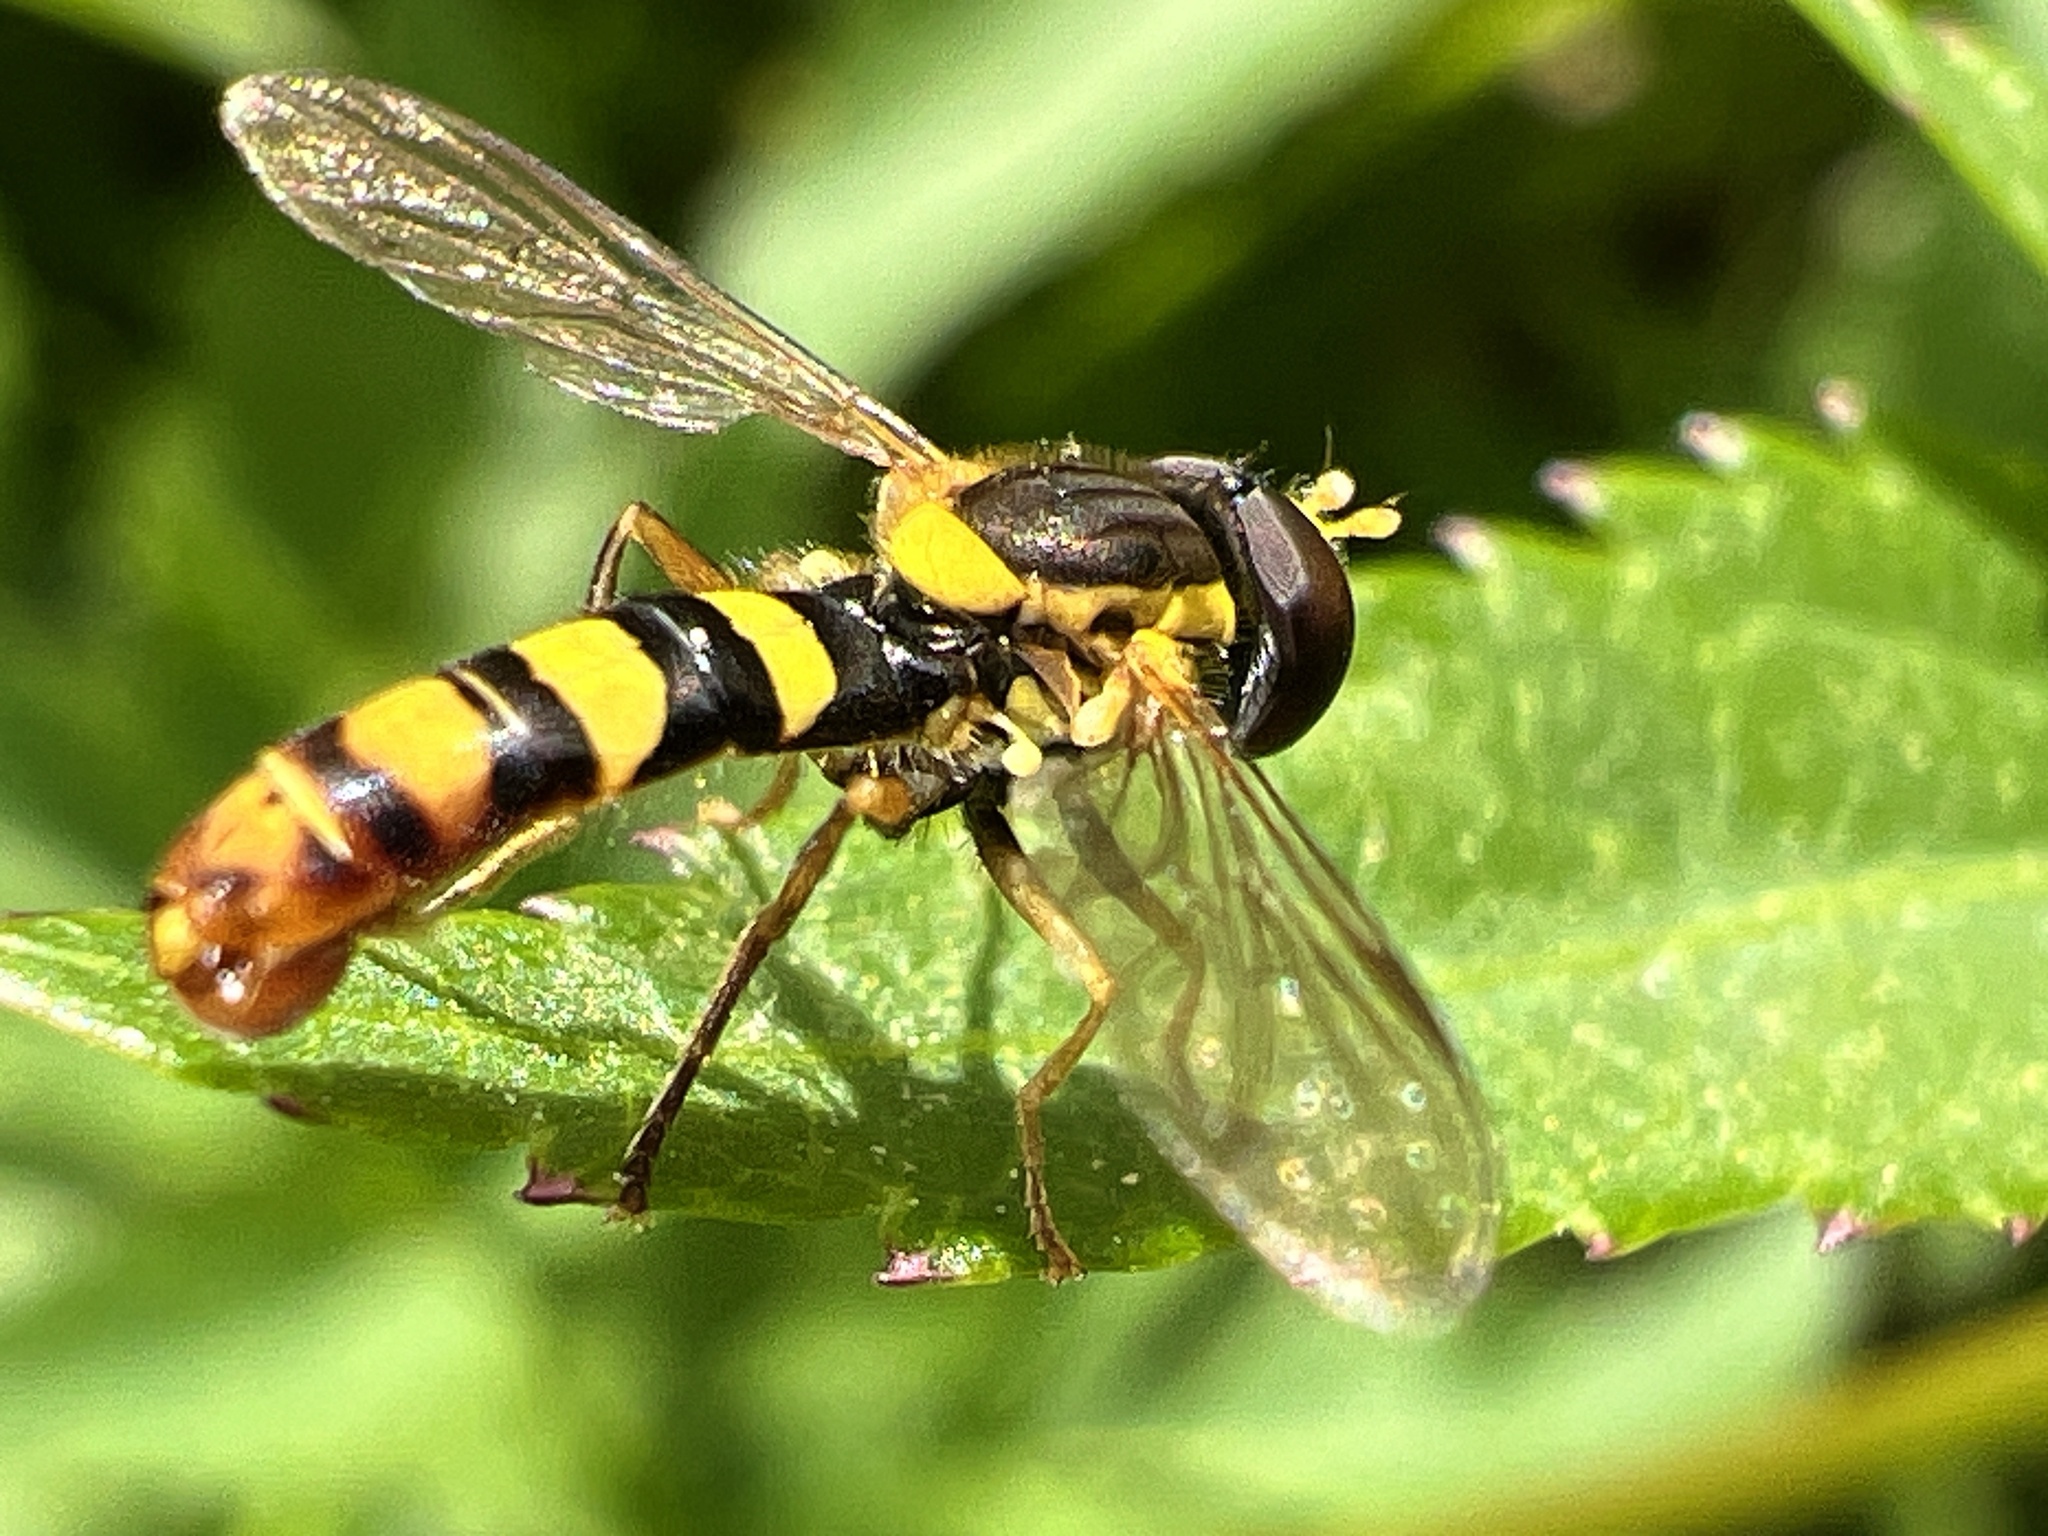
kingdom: Animalia
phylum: Arthropoda
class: Insecta
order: Diptera
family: Syrphidae
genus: Sphaerophoria
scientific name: Sphaerophoria
